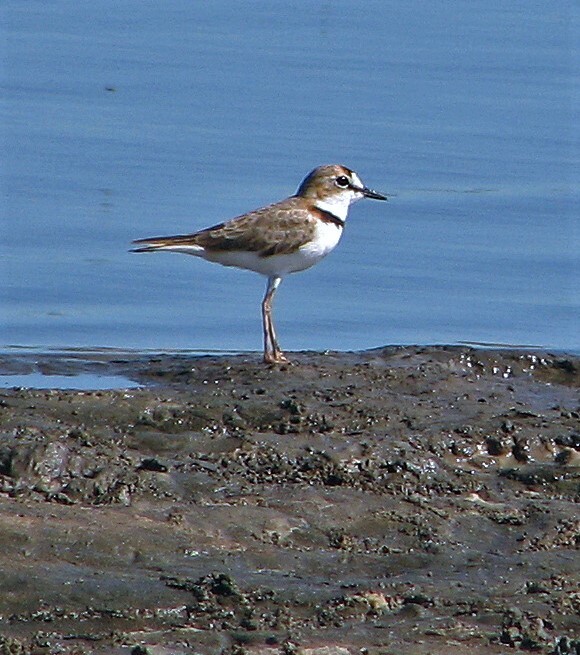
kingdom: Animalia
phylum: Chordata
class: Aves
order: Charadriiformes
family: Charadriidae
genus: Anarhynchus
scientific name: Anarhynchus
